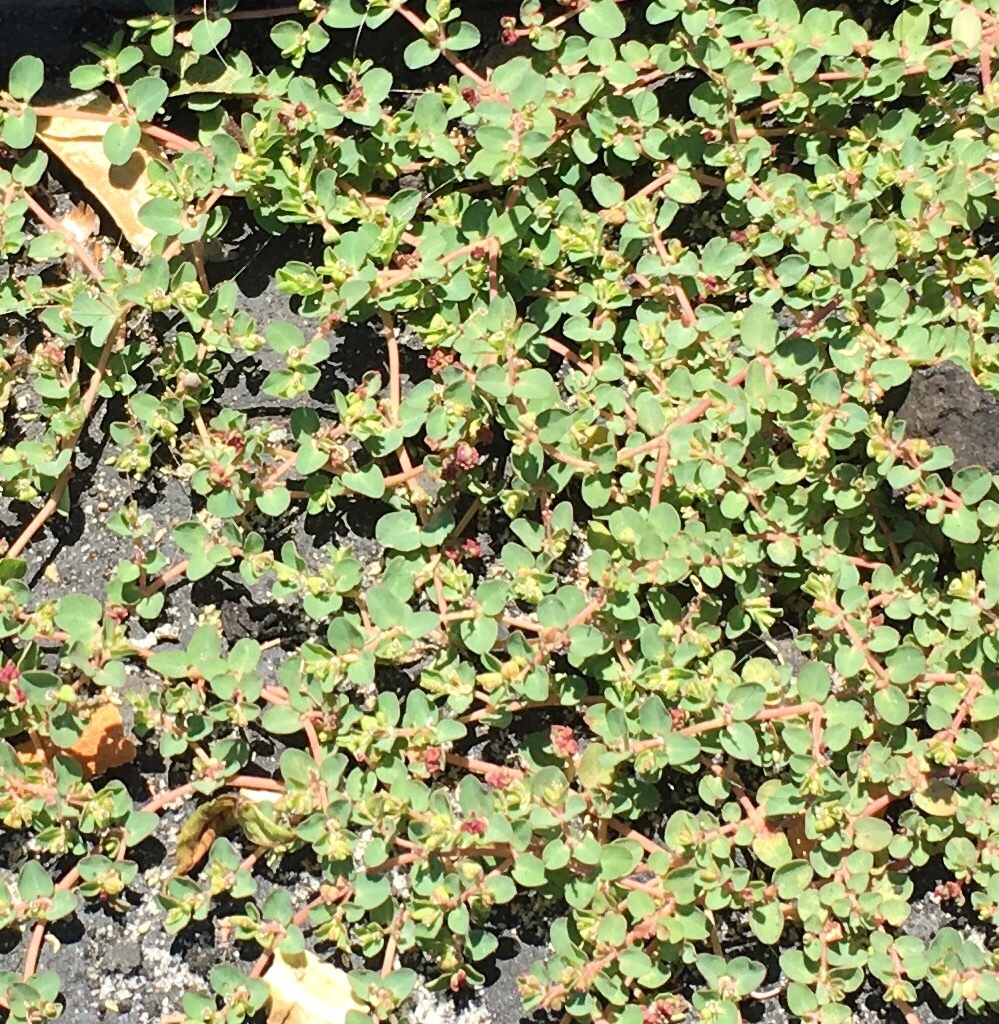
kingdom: Plantae
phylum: Tracheophyta
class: Magnoliopsida
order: Malpighiales
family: Euphorbiaceae
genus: Euphorbia
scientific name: Euphorbia serpens
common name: Matted sandmat
